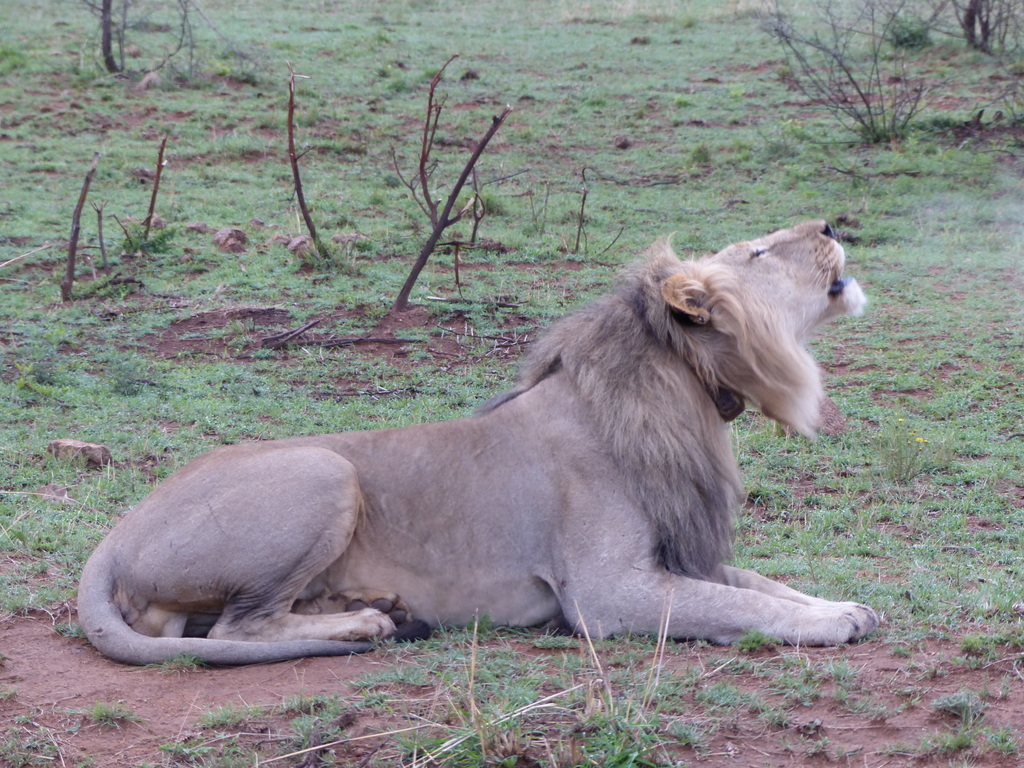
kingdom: Animalia
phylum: Chordata
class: Mammalia
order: Carnivora
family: Felidae
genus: Panthera
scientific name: Panthera leo
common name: Lion
